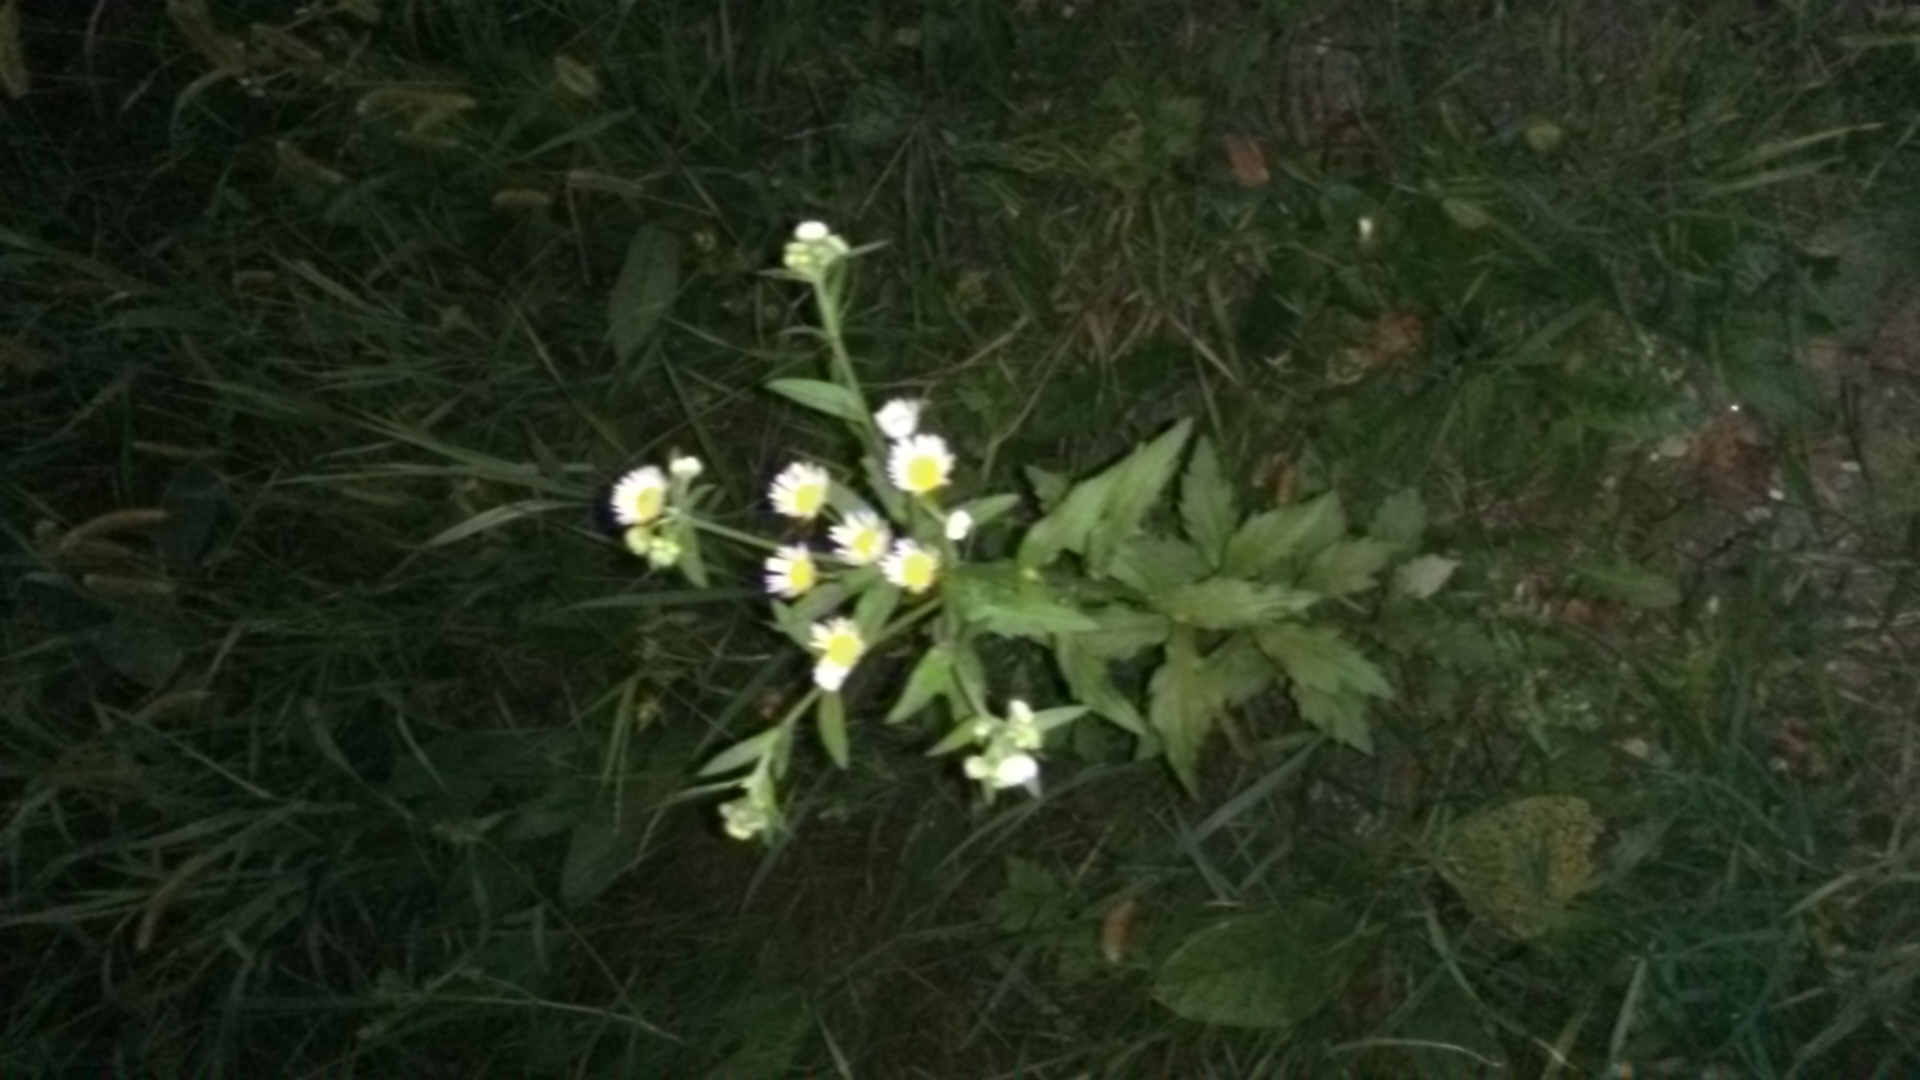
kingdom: Plantae
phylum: Tracheophyta
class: Magnoliopsida
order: Asterales
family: Asteraceae
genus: Erigeron
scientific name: Erigeron annuus
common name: Tall fleabane
